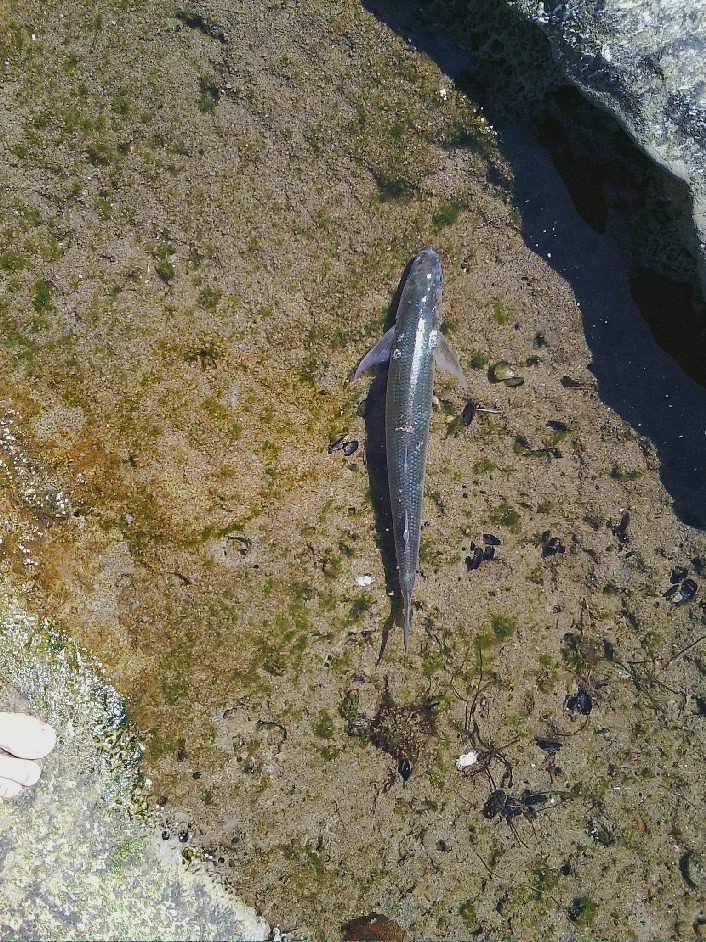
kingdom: Animalia
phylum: Chordata
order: Atheriniformes
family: Atherinopsidae
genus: Atherinopsis
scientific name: Atherinopsis californiensis
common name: Jack silverside
